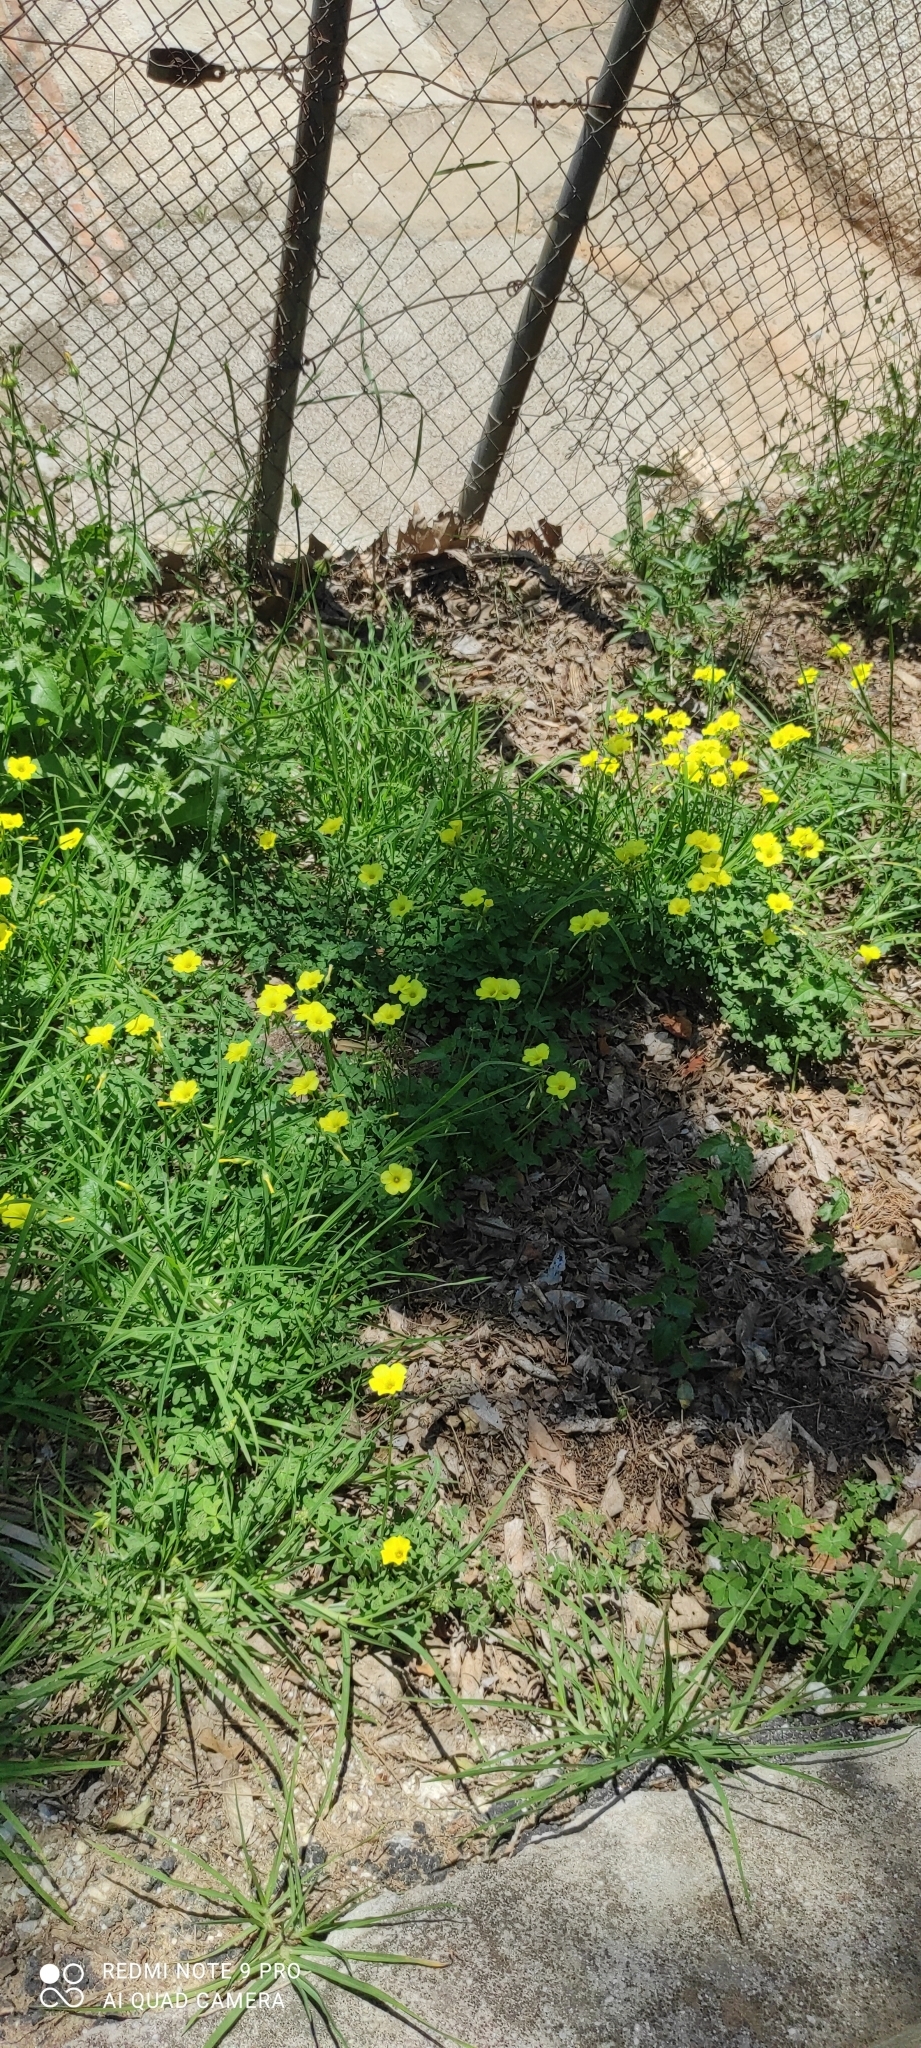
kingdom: Plantae
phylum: Tracheophyta
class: Magnoliopsida
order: Oxalidales
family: Oxalidaceae
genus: Oxalis
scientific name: Oxalis pes-caprae
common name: Bermuda-buttercup
